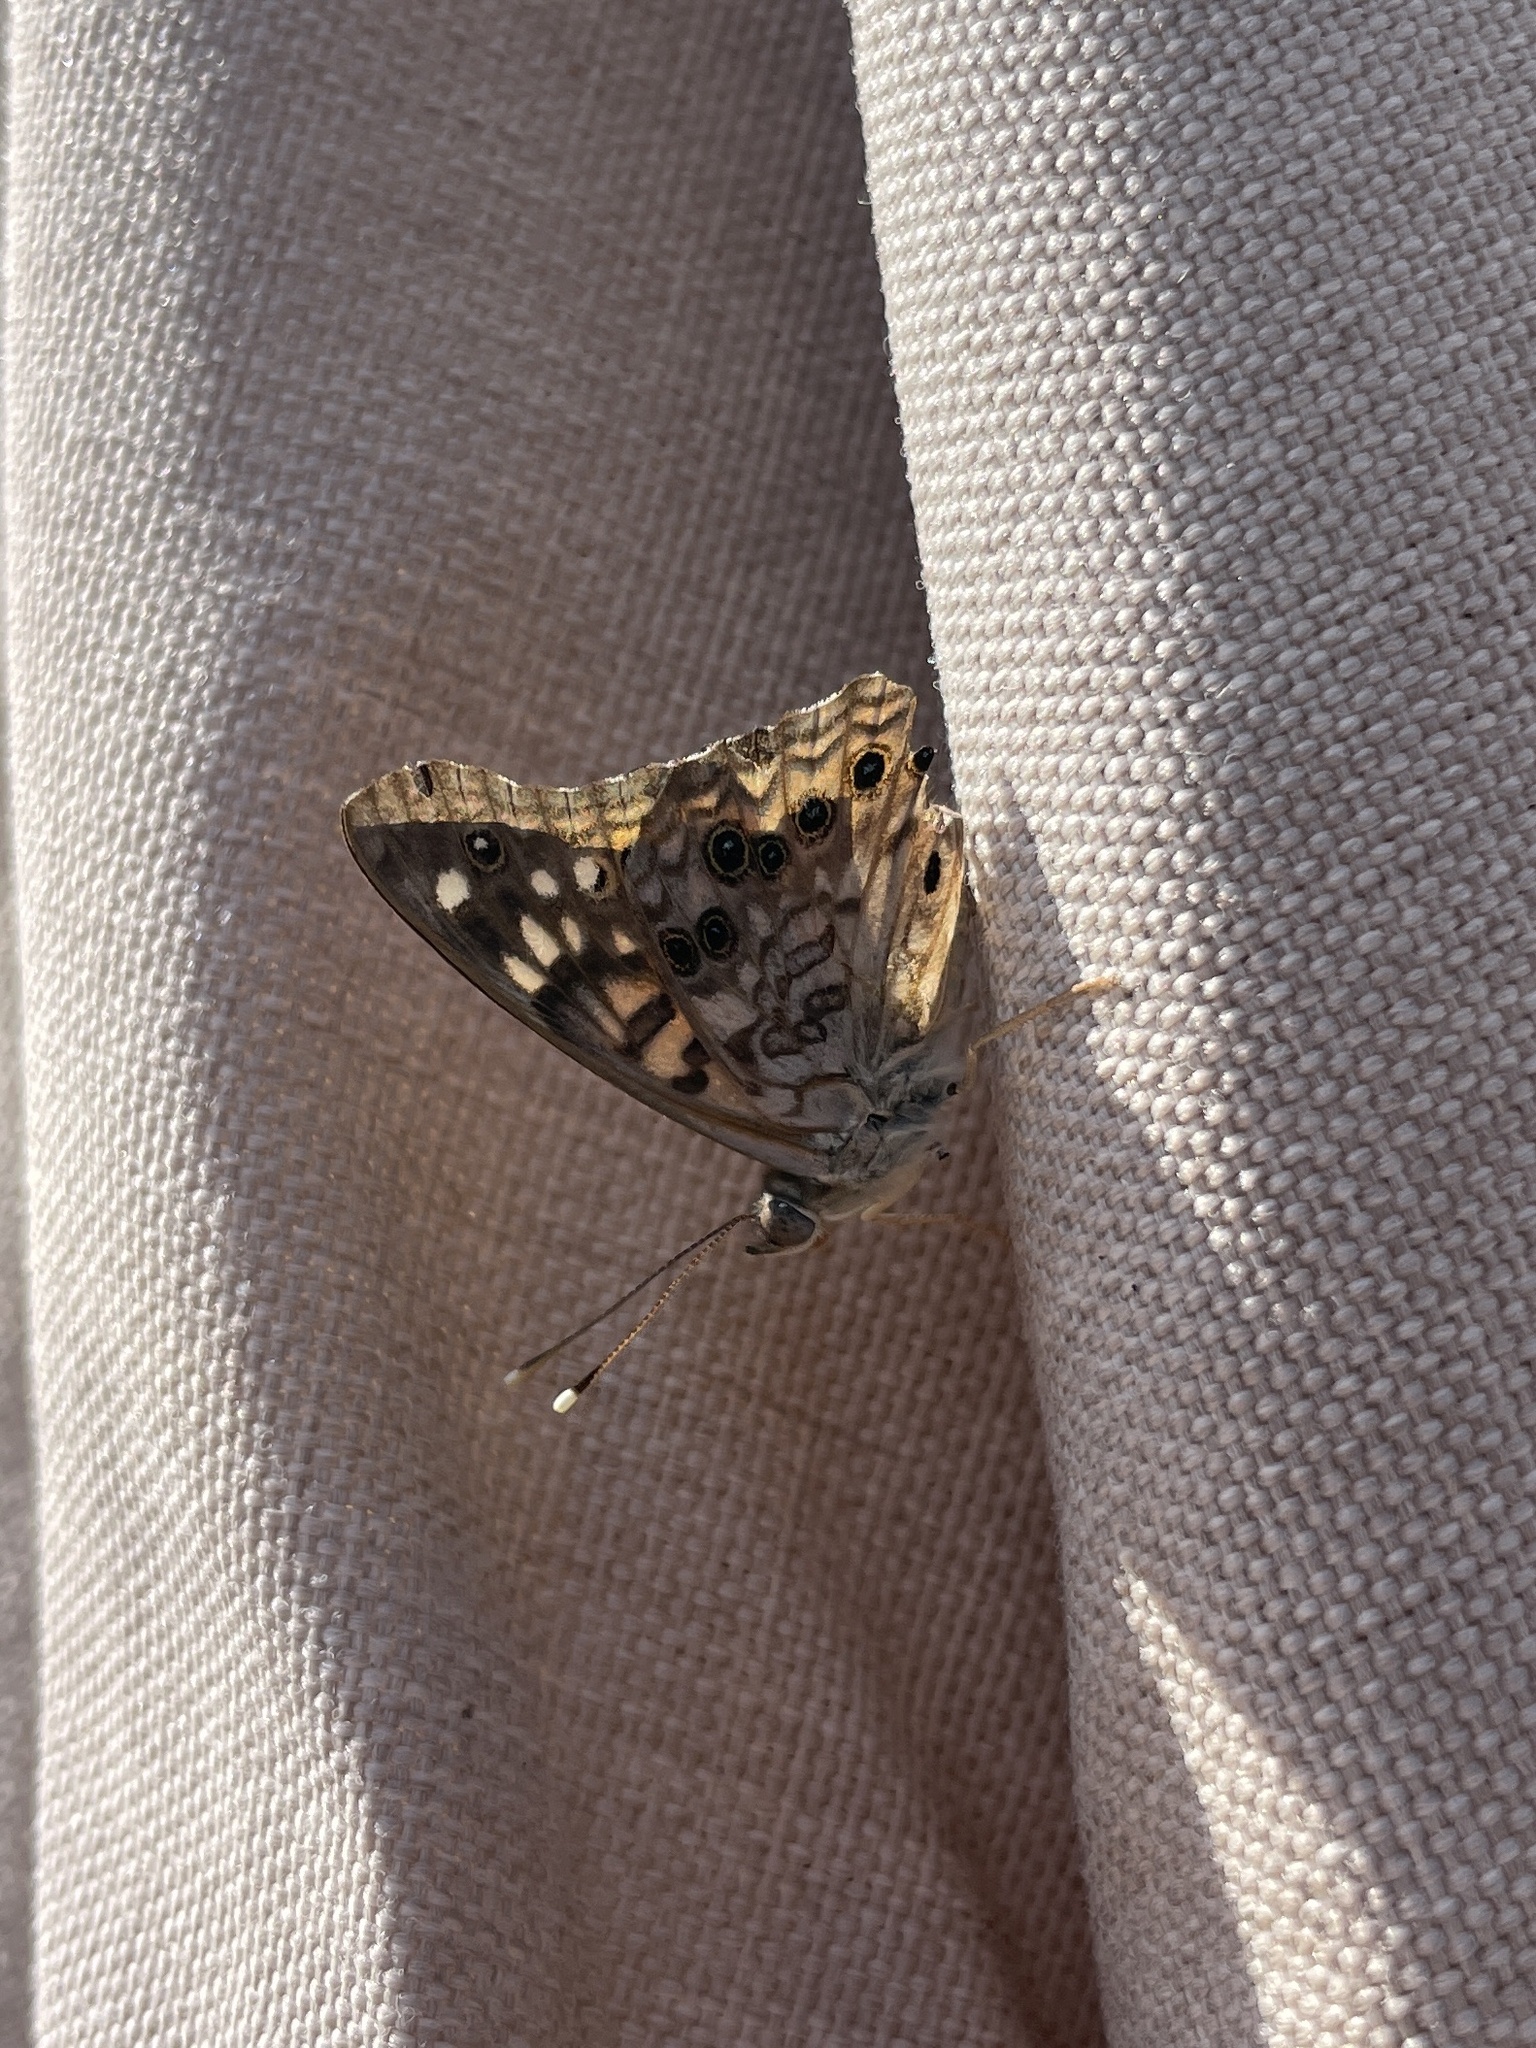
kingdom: Animalia
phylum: Arthropoda
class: Insecta
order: Lepidoptera
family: Nymphalidae
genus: Asterocampa
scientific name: Asterocampa celtis
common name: Hackberry emperor
